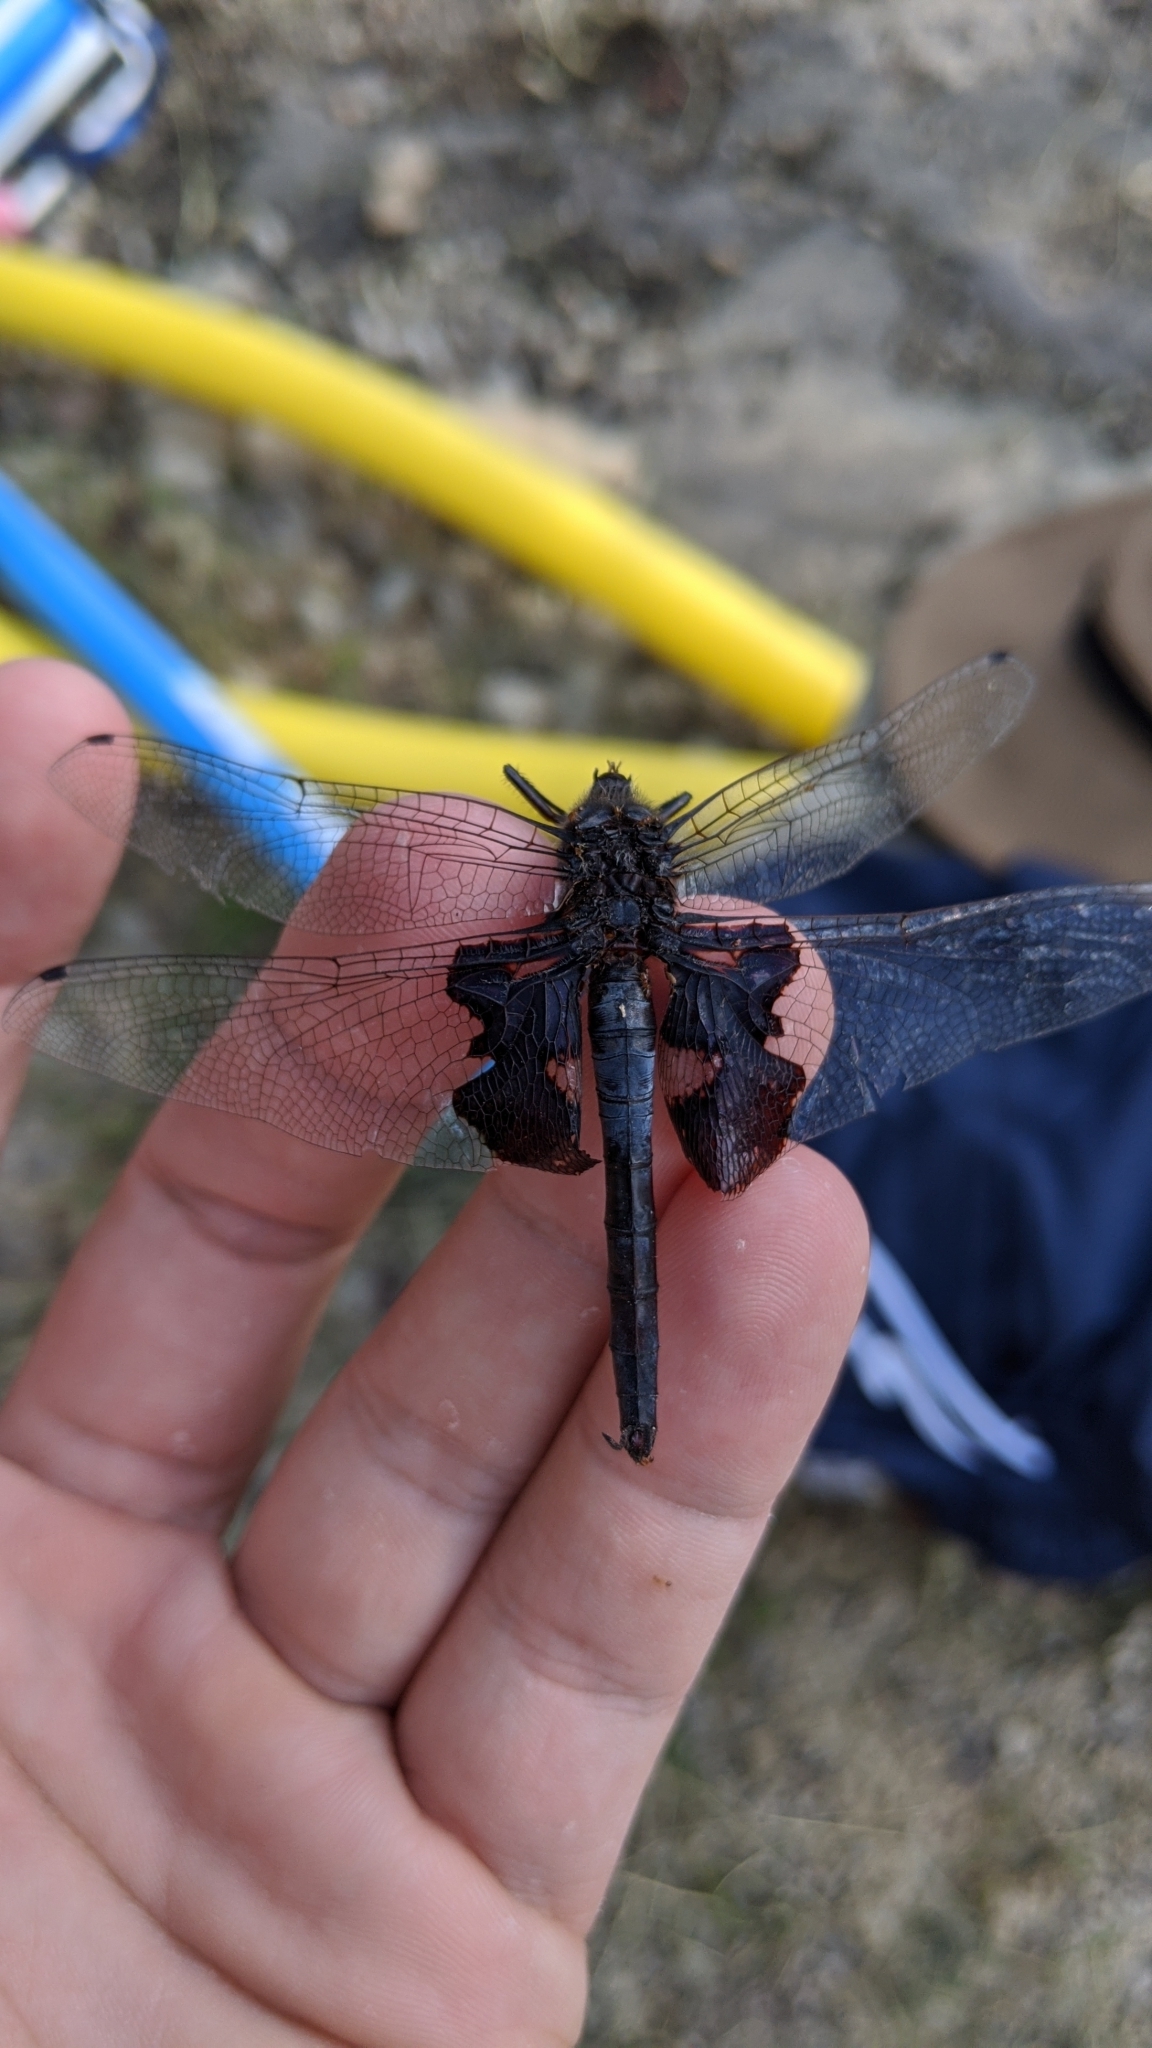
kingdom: Animalia
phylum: Arthropoda
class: Insecta
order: Odonata
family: Libellulidae
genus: Tramea
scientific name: Tramea lacerata
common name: Black saddlebags
